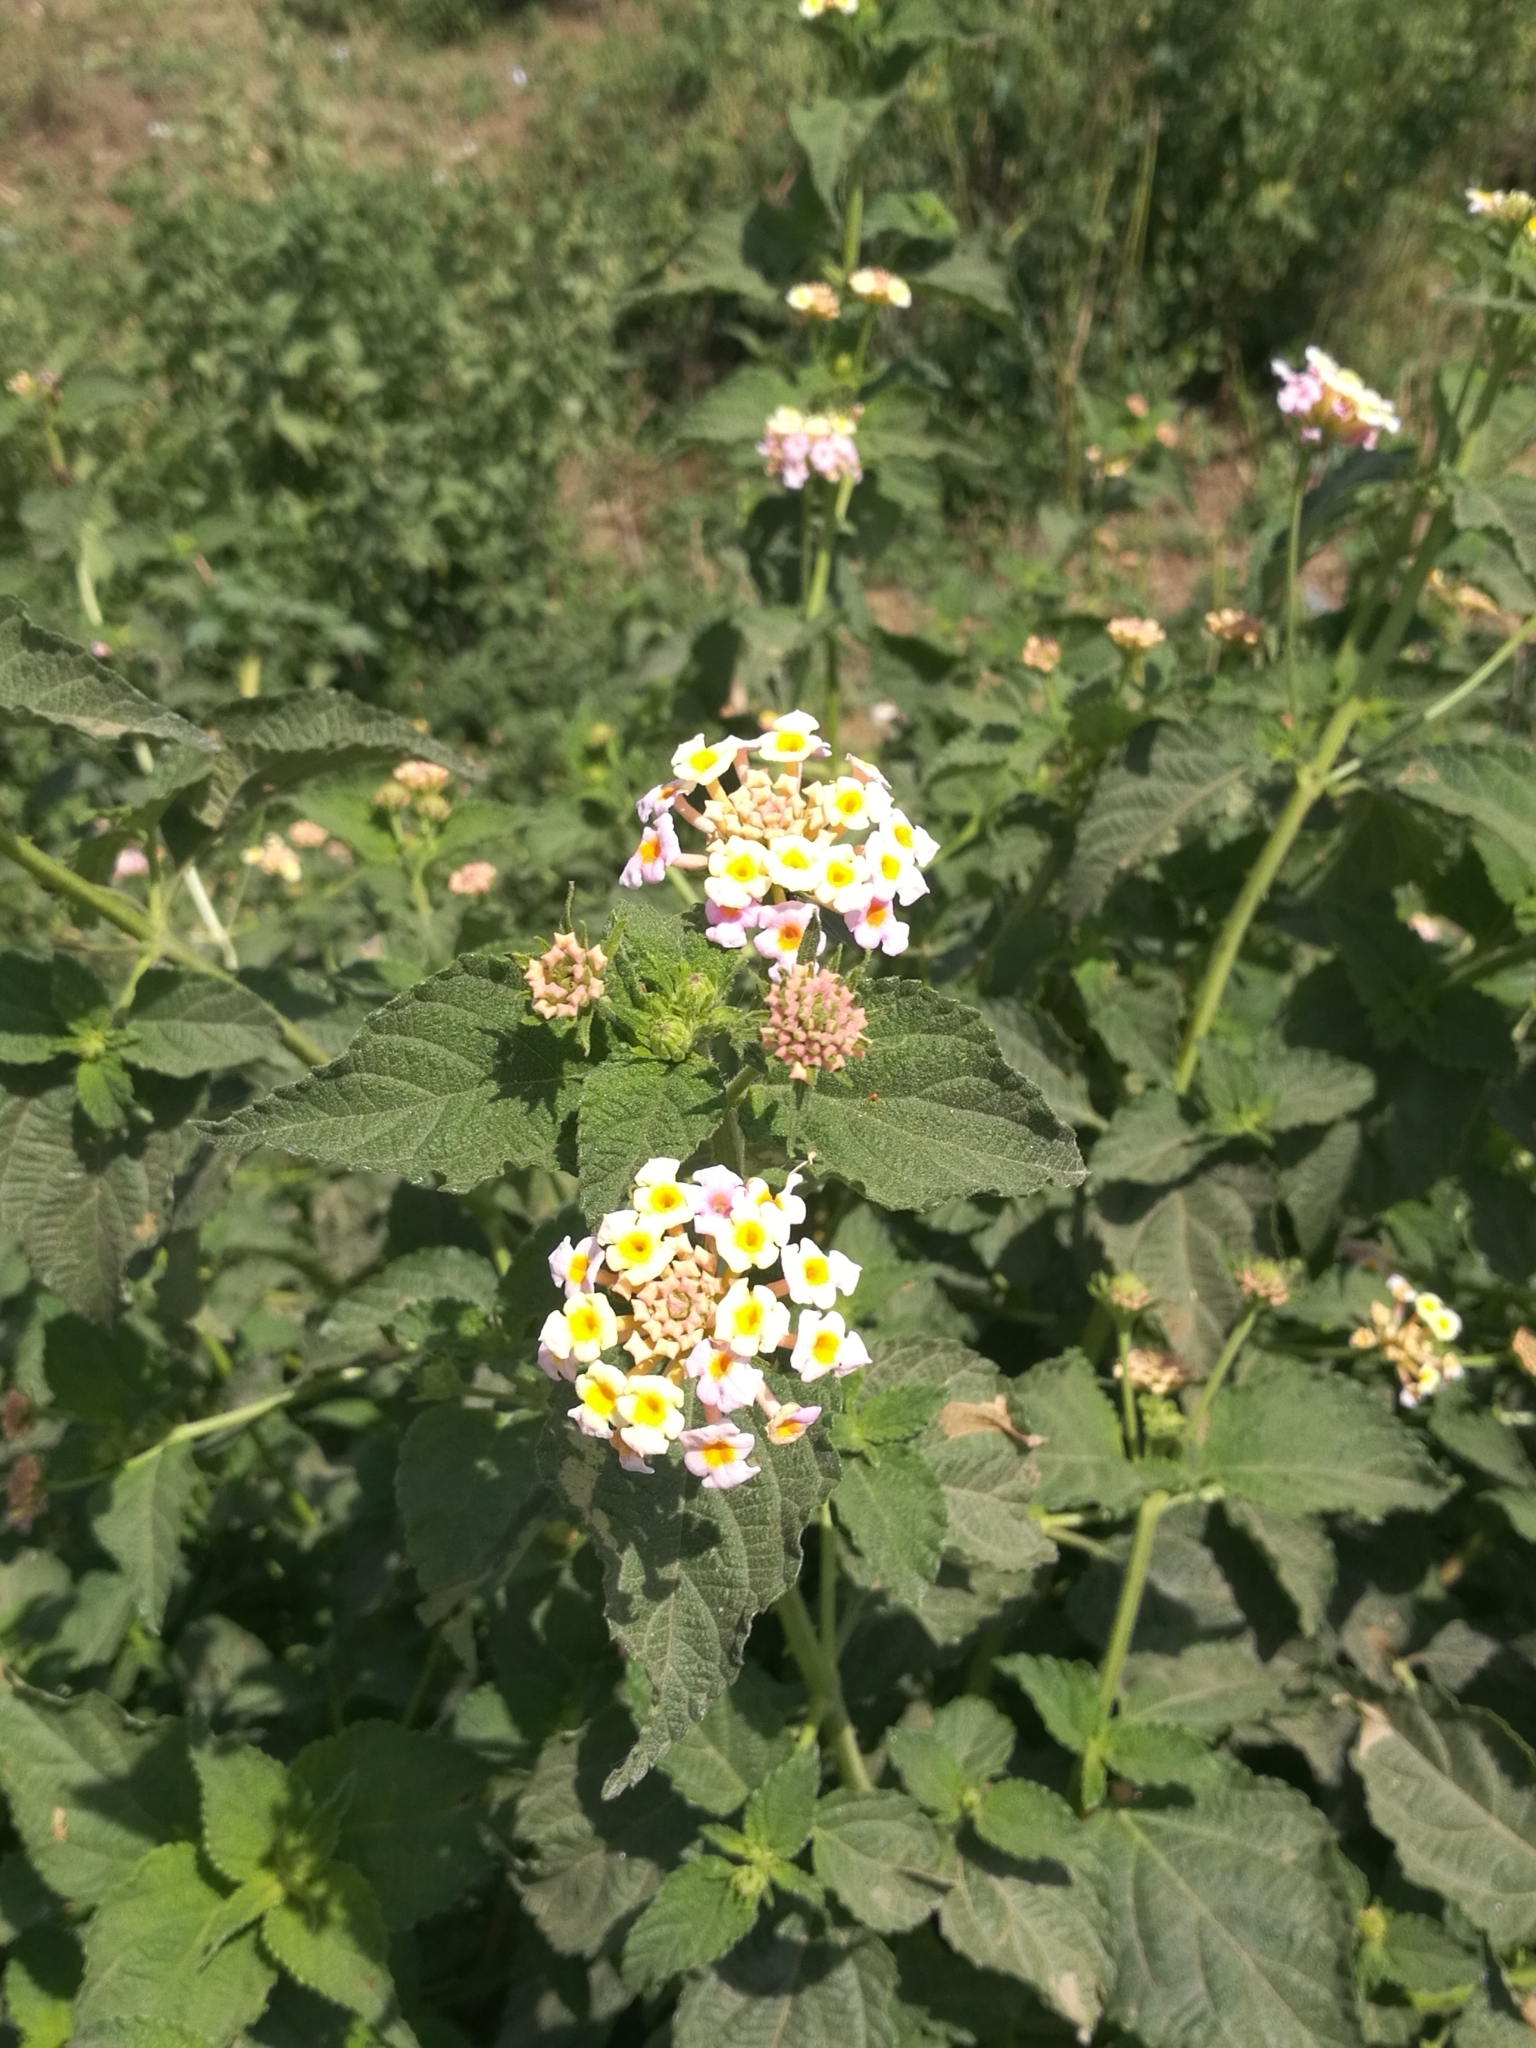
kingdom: Plantae
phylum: Tracheophyta
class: Magnoliopsida
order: Lamiales
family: Verbenaceae
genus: Lantana
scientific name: Lantana camara
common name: Lantana
